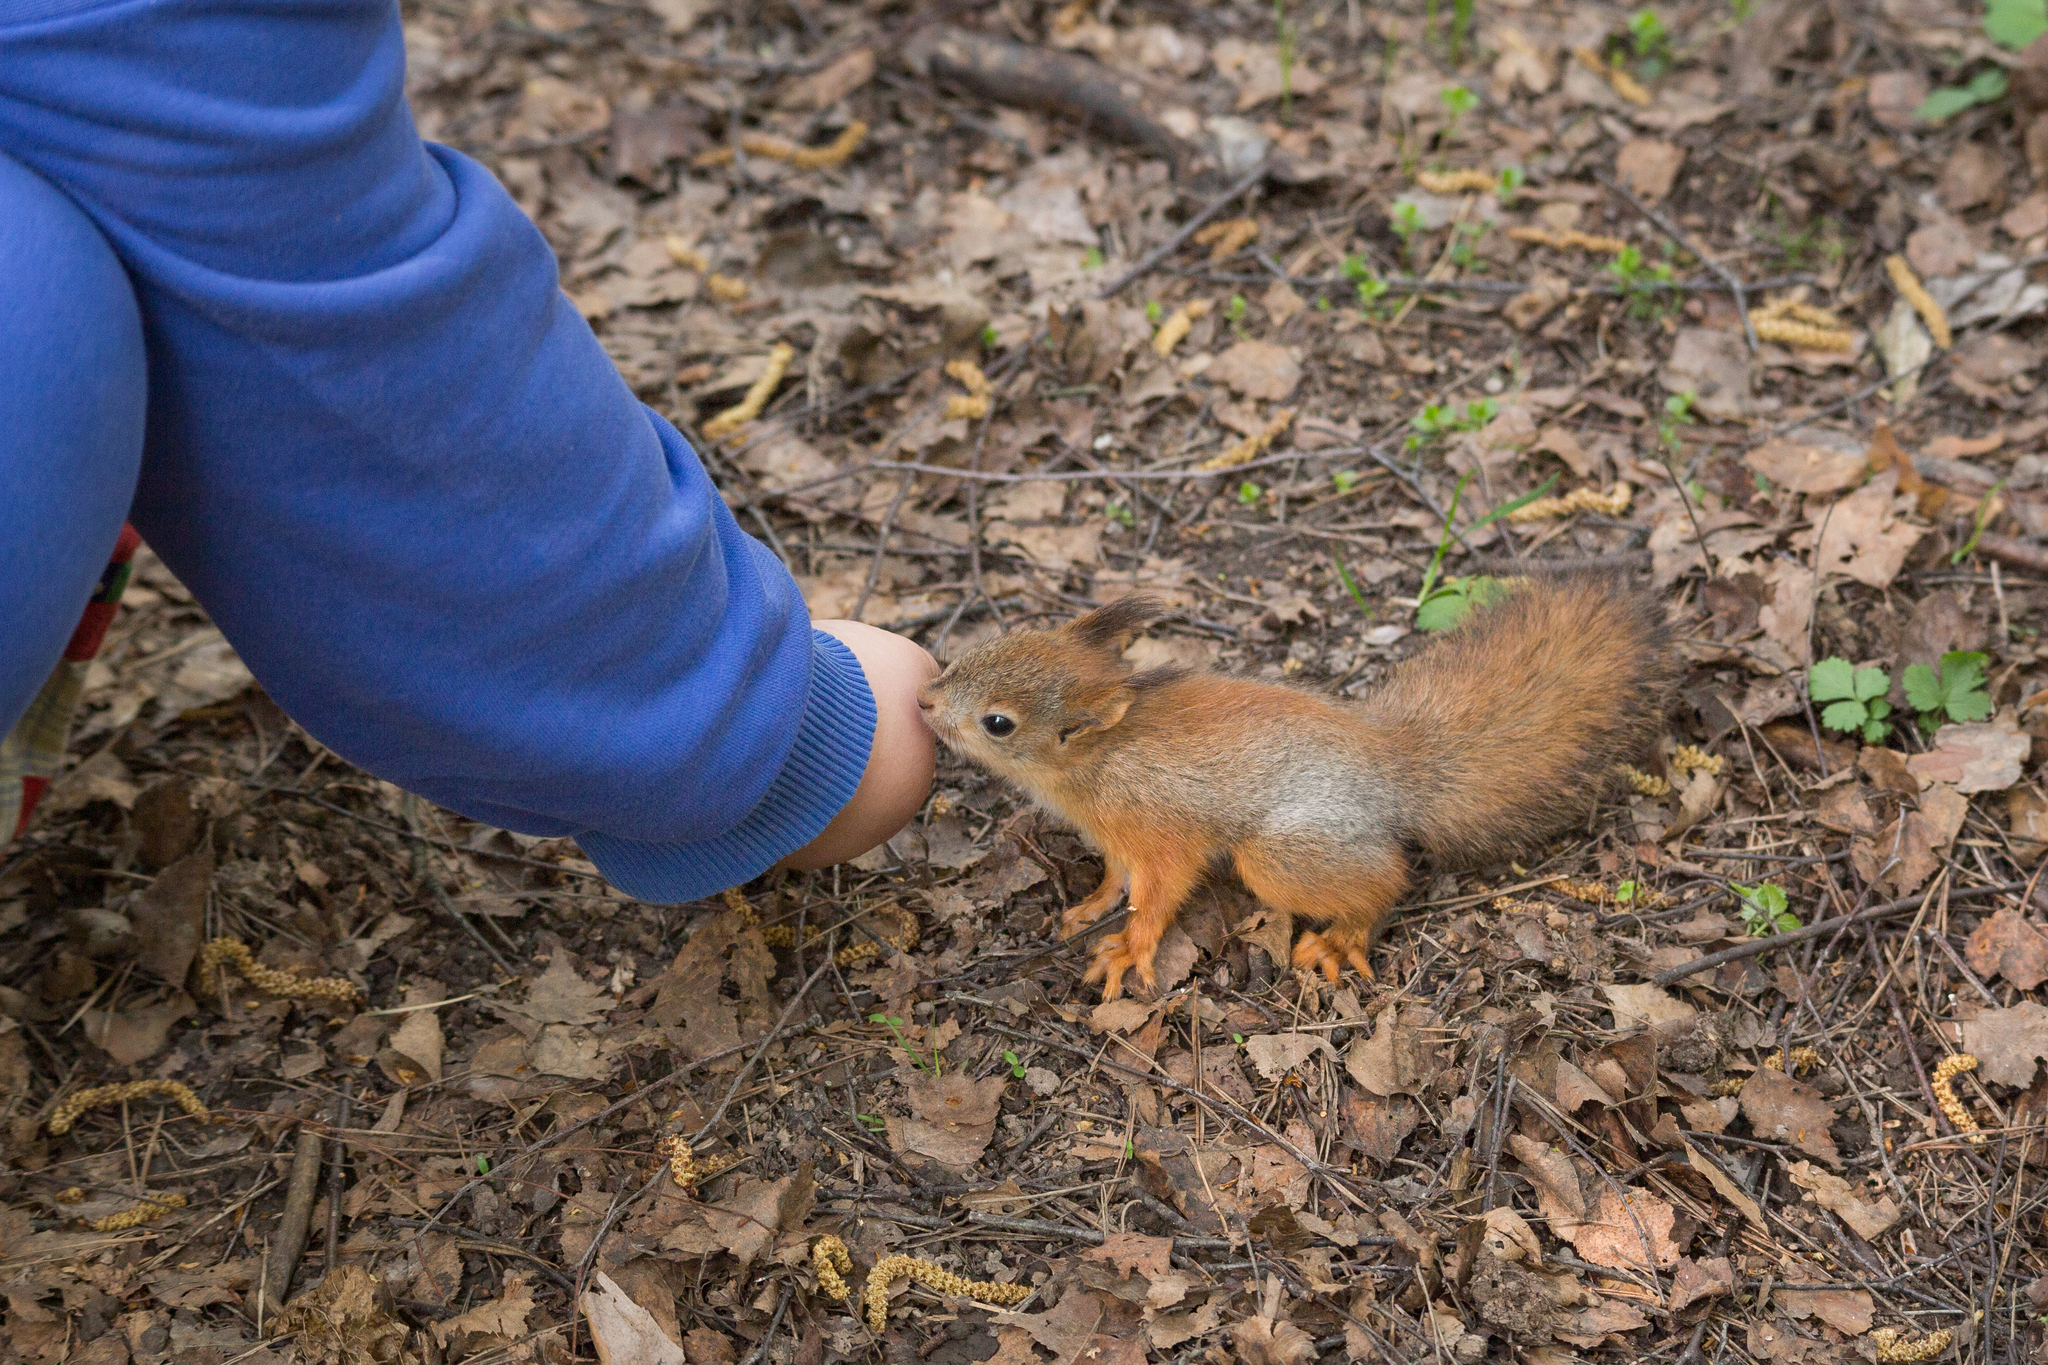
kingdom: Animalia
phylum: Chordata
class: Mammalia
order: Rodentia
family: Sciuridae
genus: Sciurus
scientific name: Sciurus vulgaris
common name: Eurasian red squirrel
